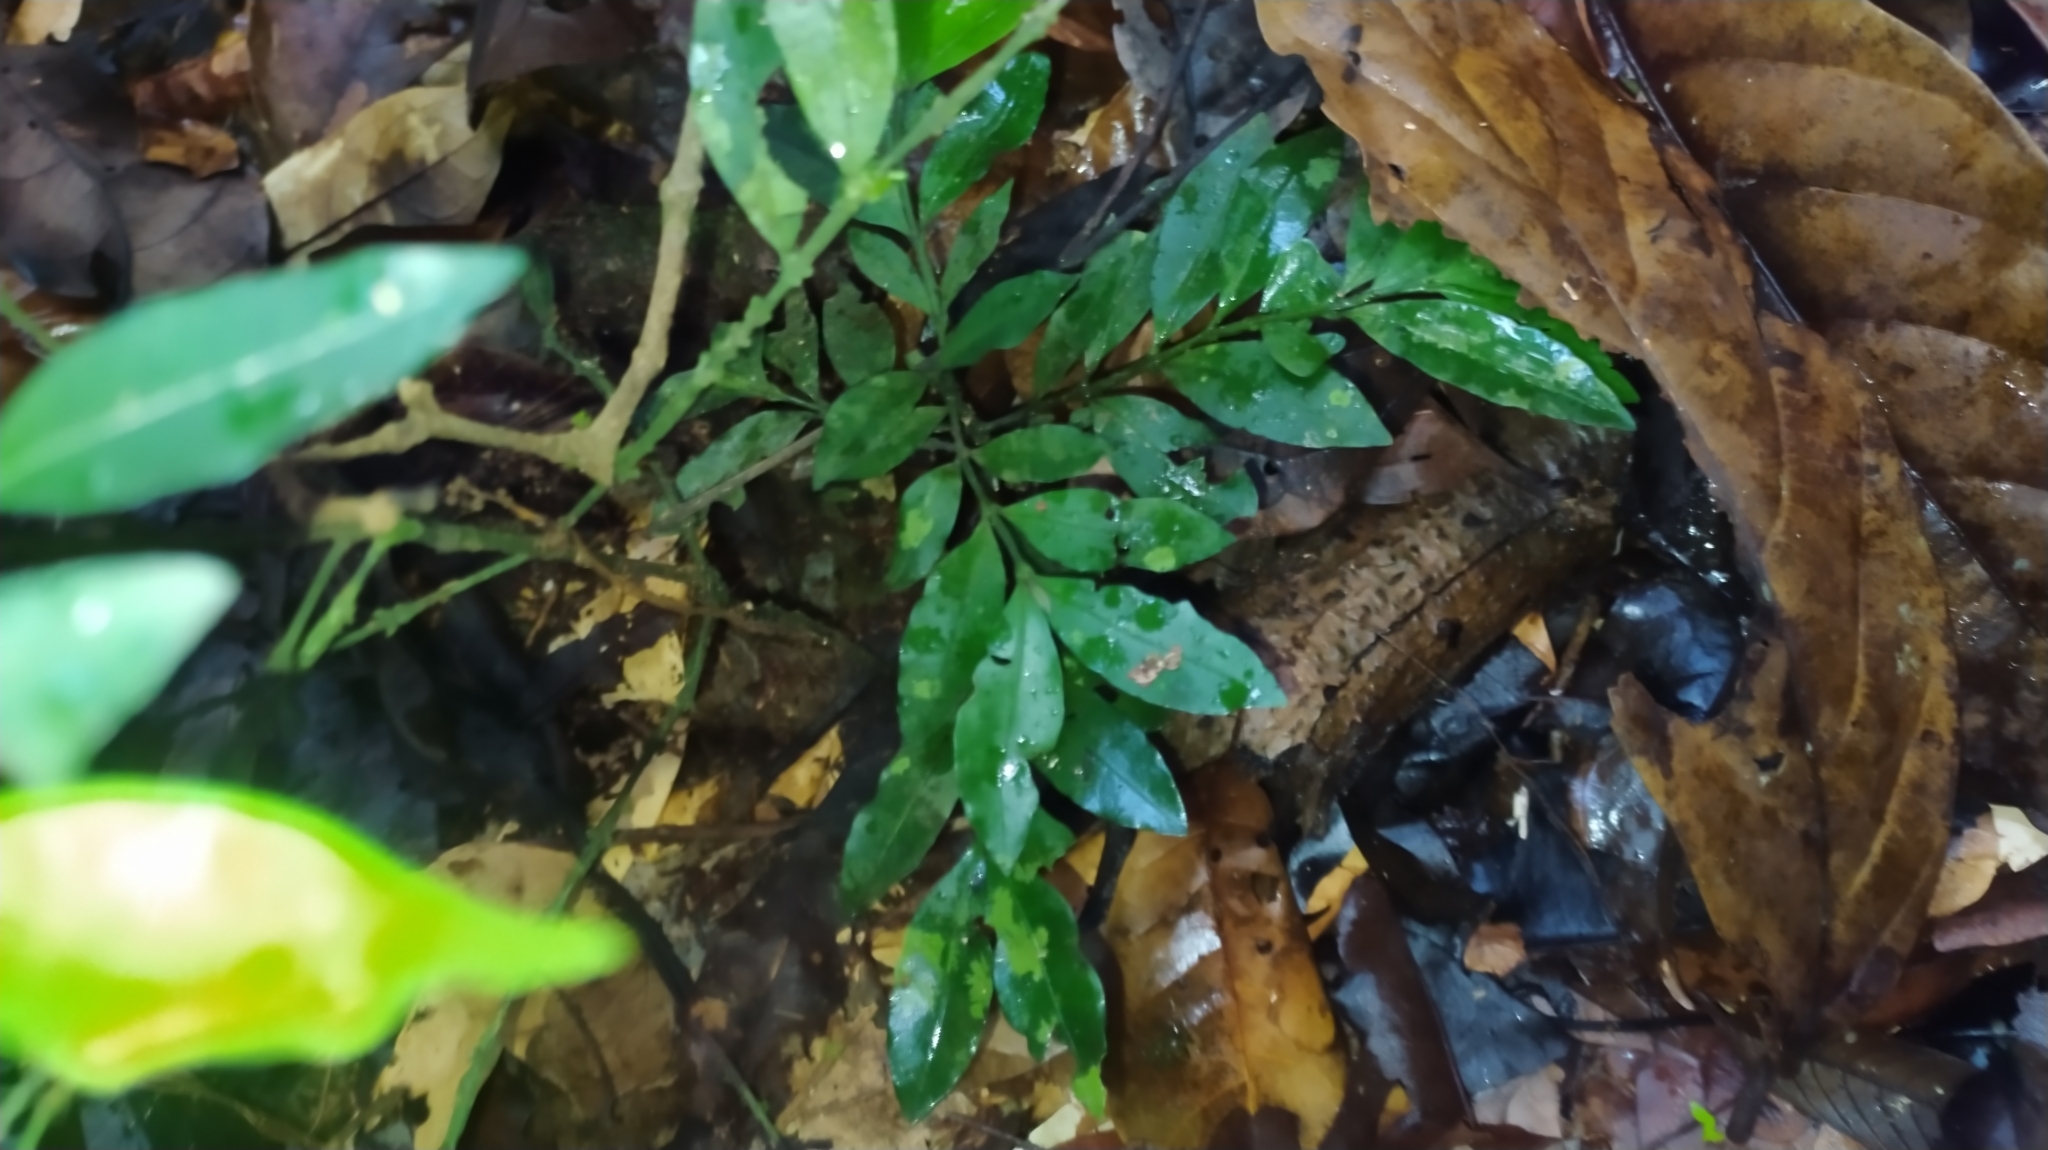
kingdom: Plantae
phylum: Tracheophyta
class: Magnoliopsida
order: Gentianales
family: Rubiaceae
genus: Faramea
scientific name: Faramea lourteigiana
